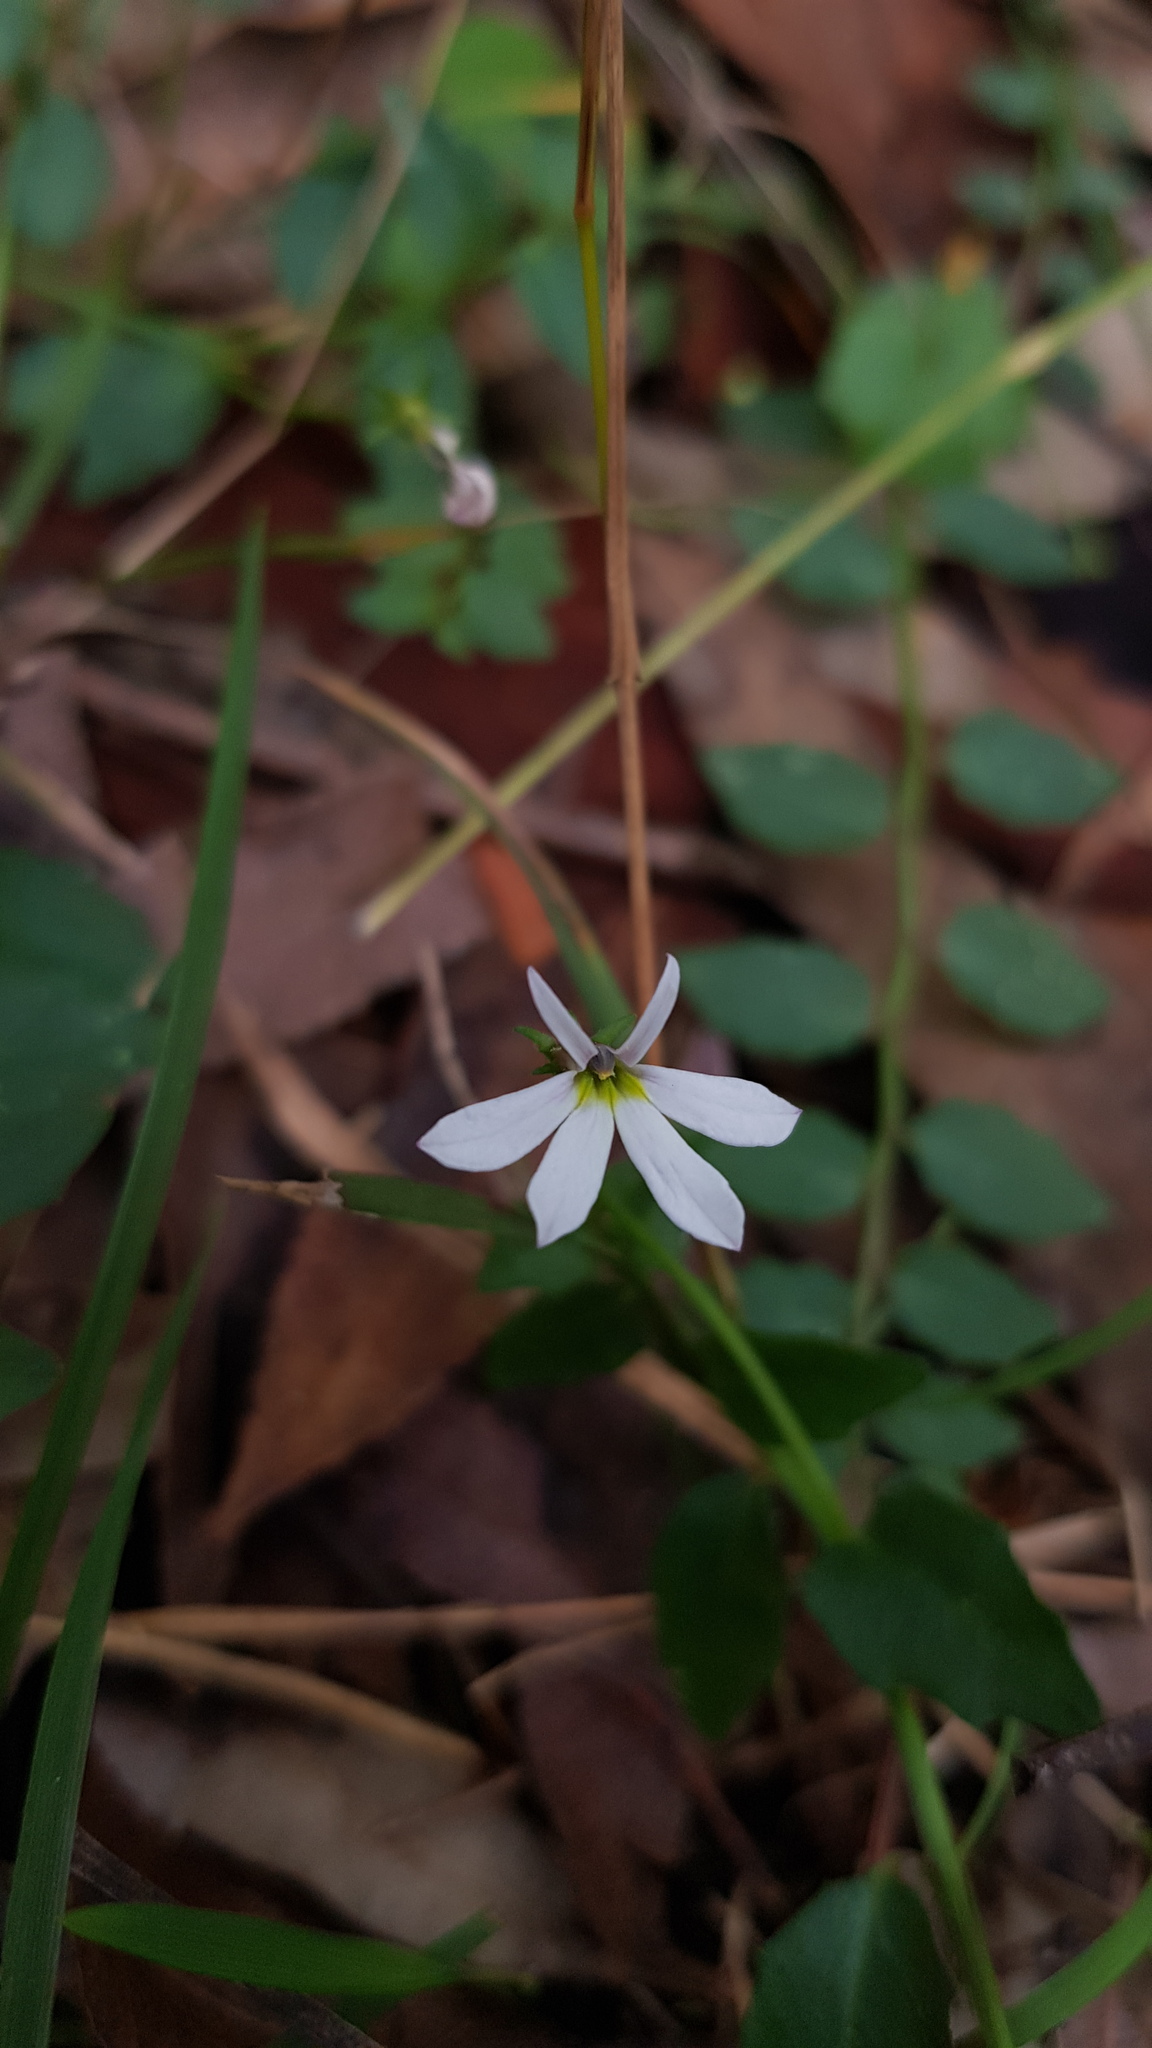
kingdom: Plantae
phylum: Tracheophyta
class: Magnoliopsida
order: Asterales
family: Campanulaceae
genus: Lobelia
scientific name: Lobelia purpurascens
